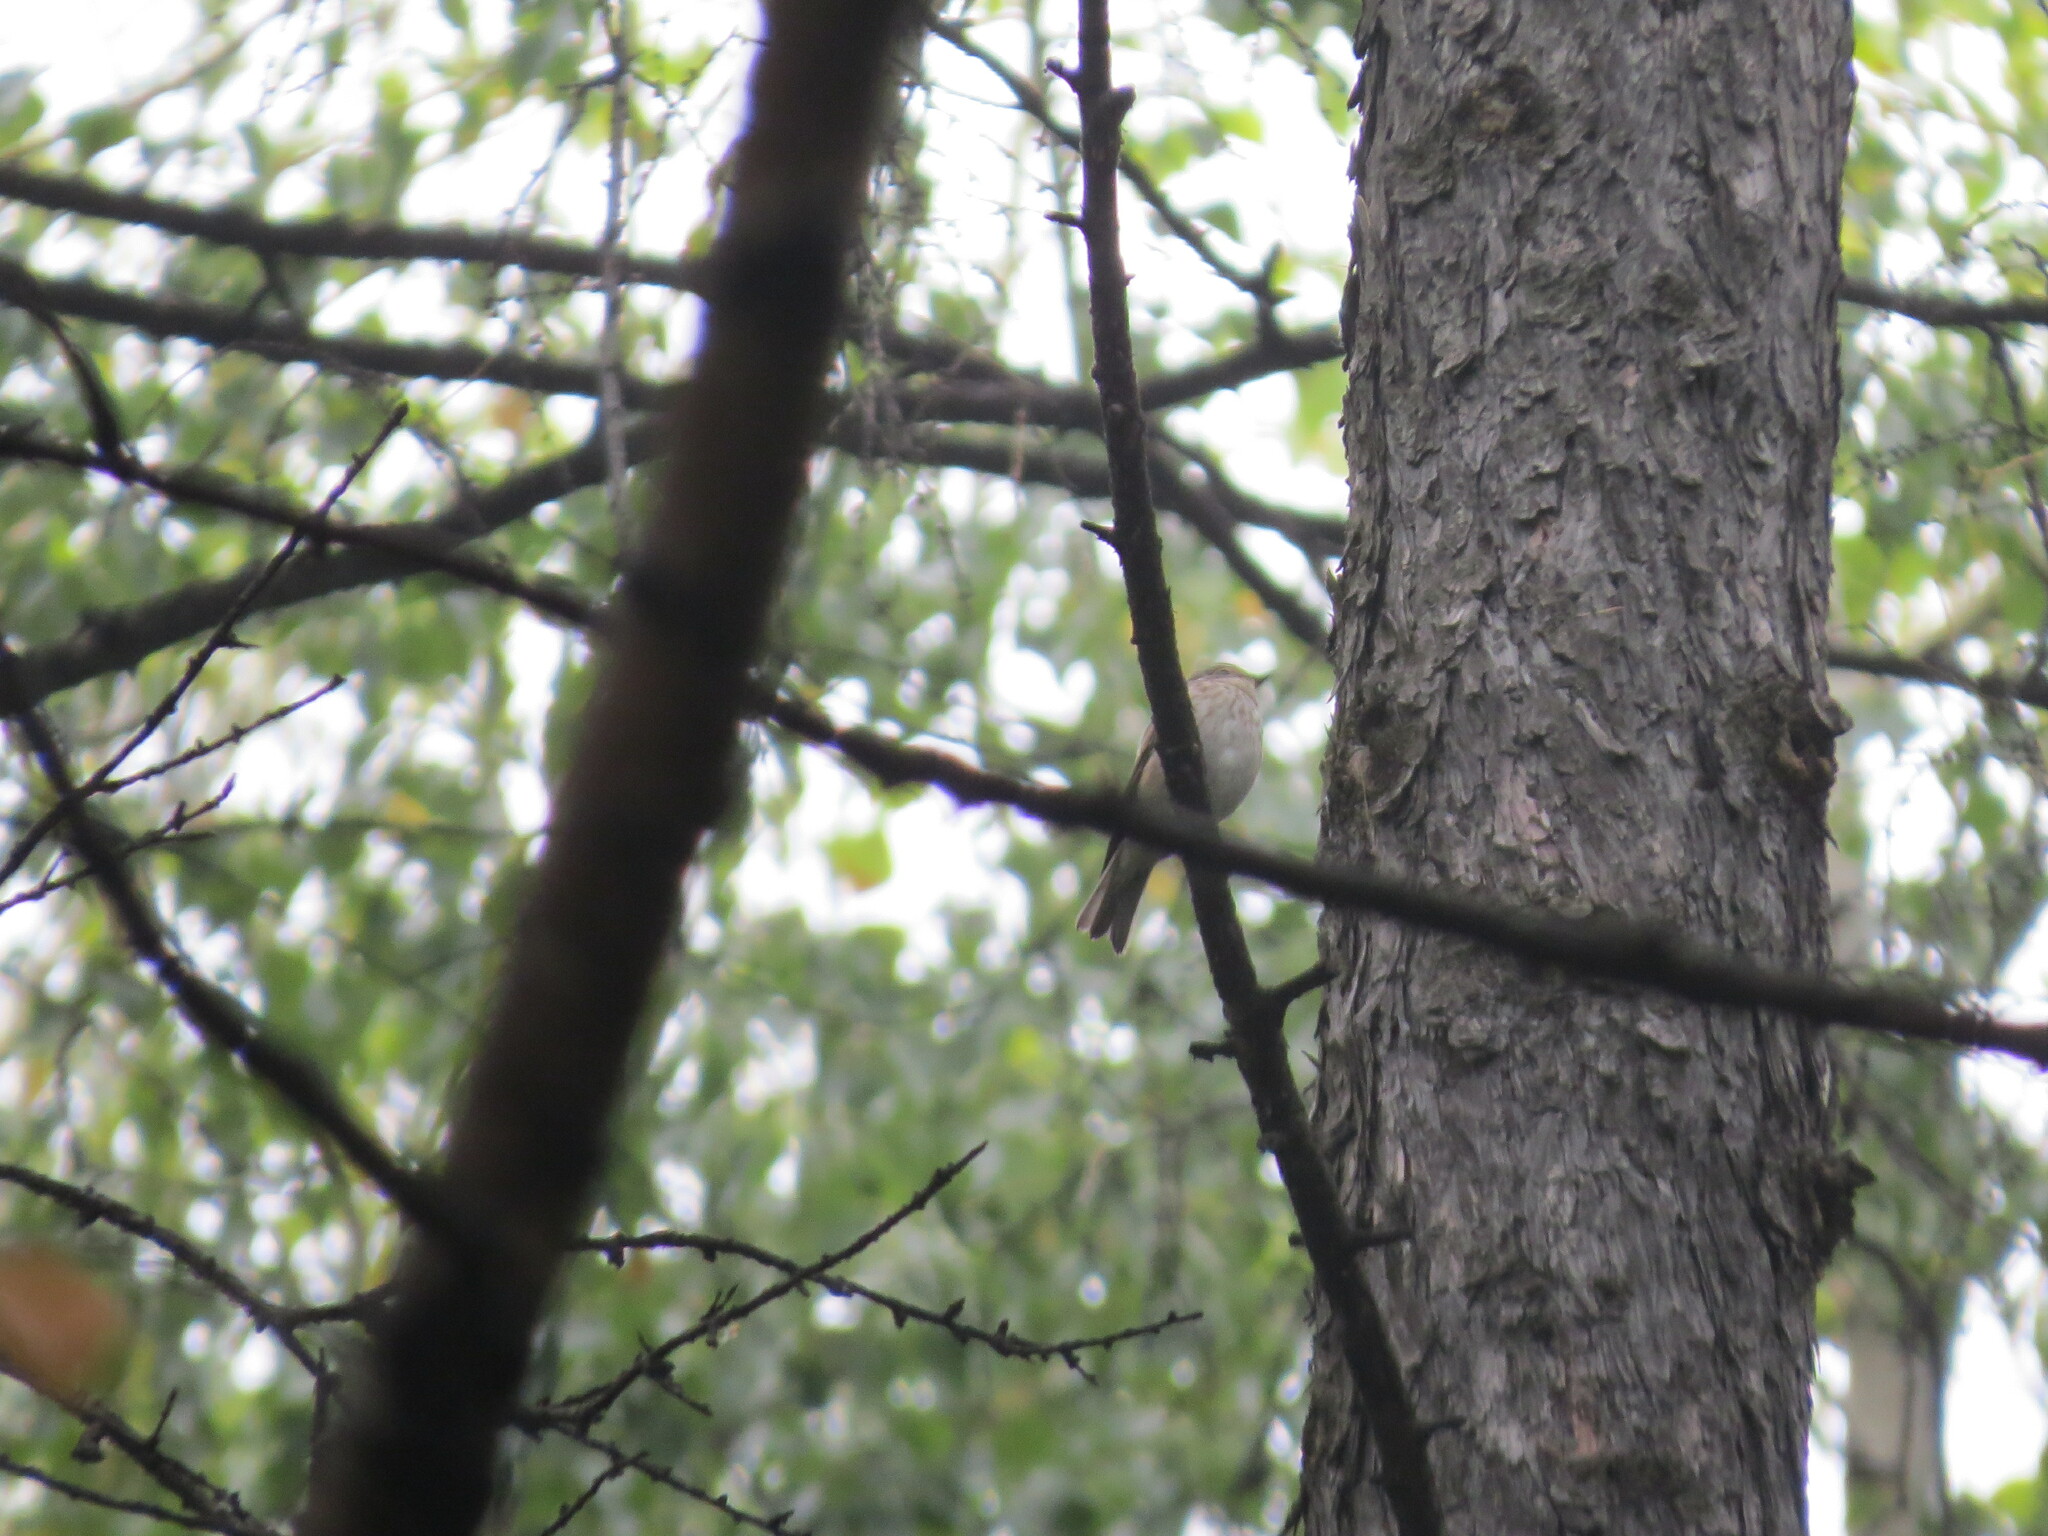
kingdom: Animalia
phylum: Chordata
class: Aves
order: Passeriformes
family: Muscicapidae
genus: Muscicapa
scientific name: Muscicapa striata
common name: Spotted flycatcher
